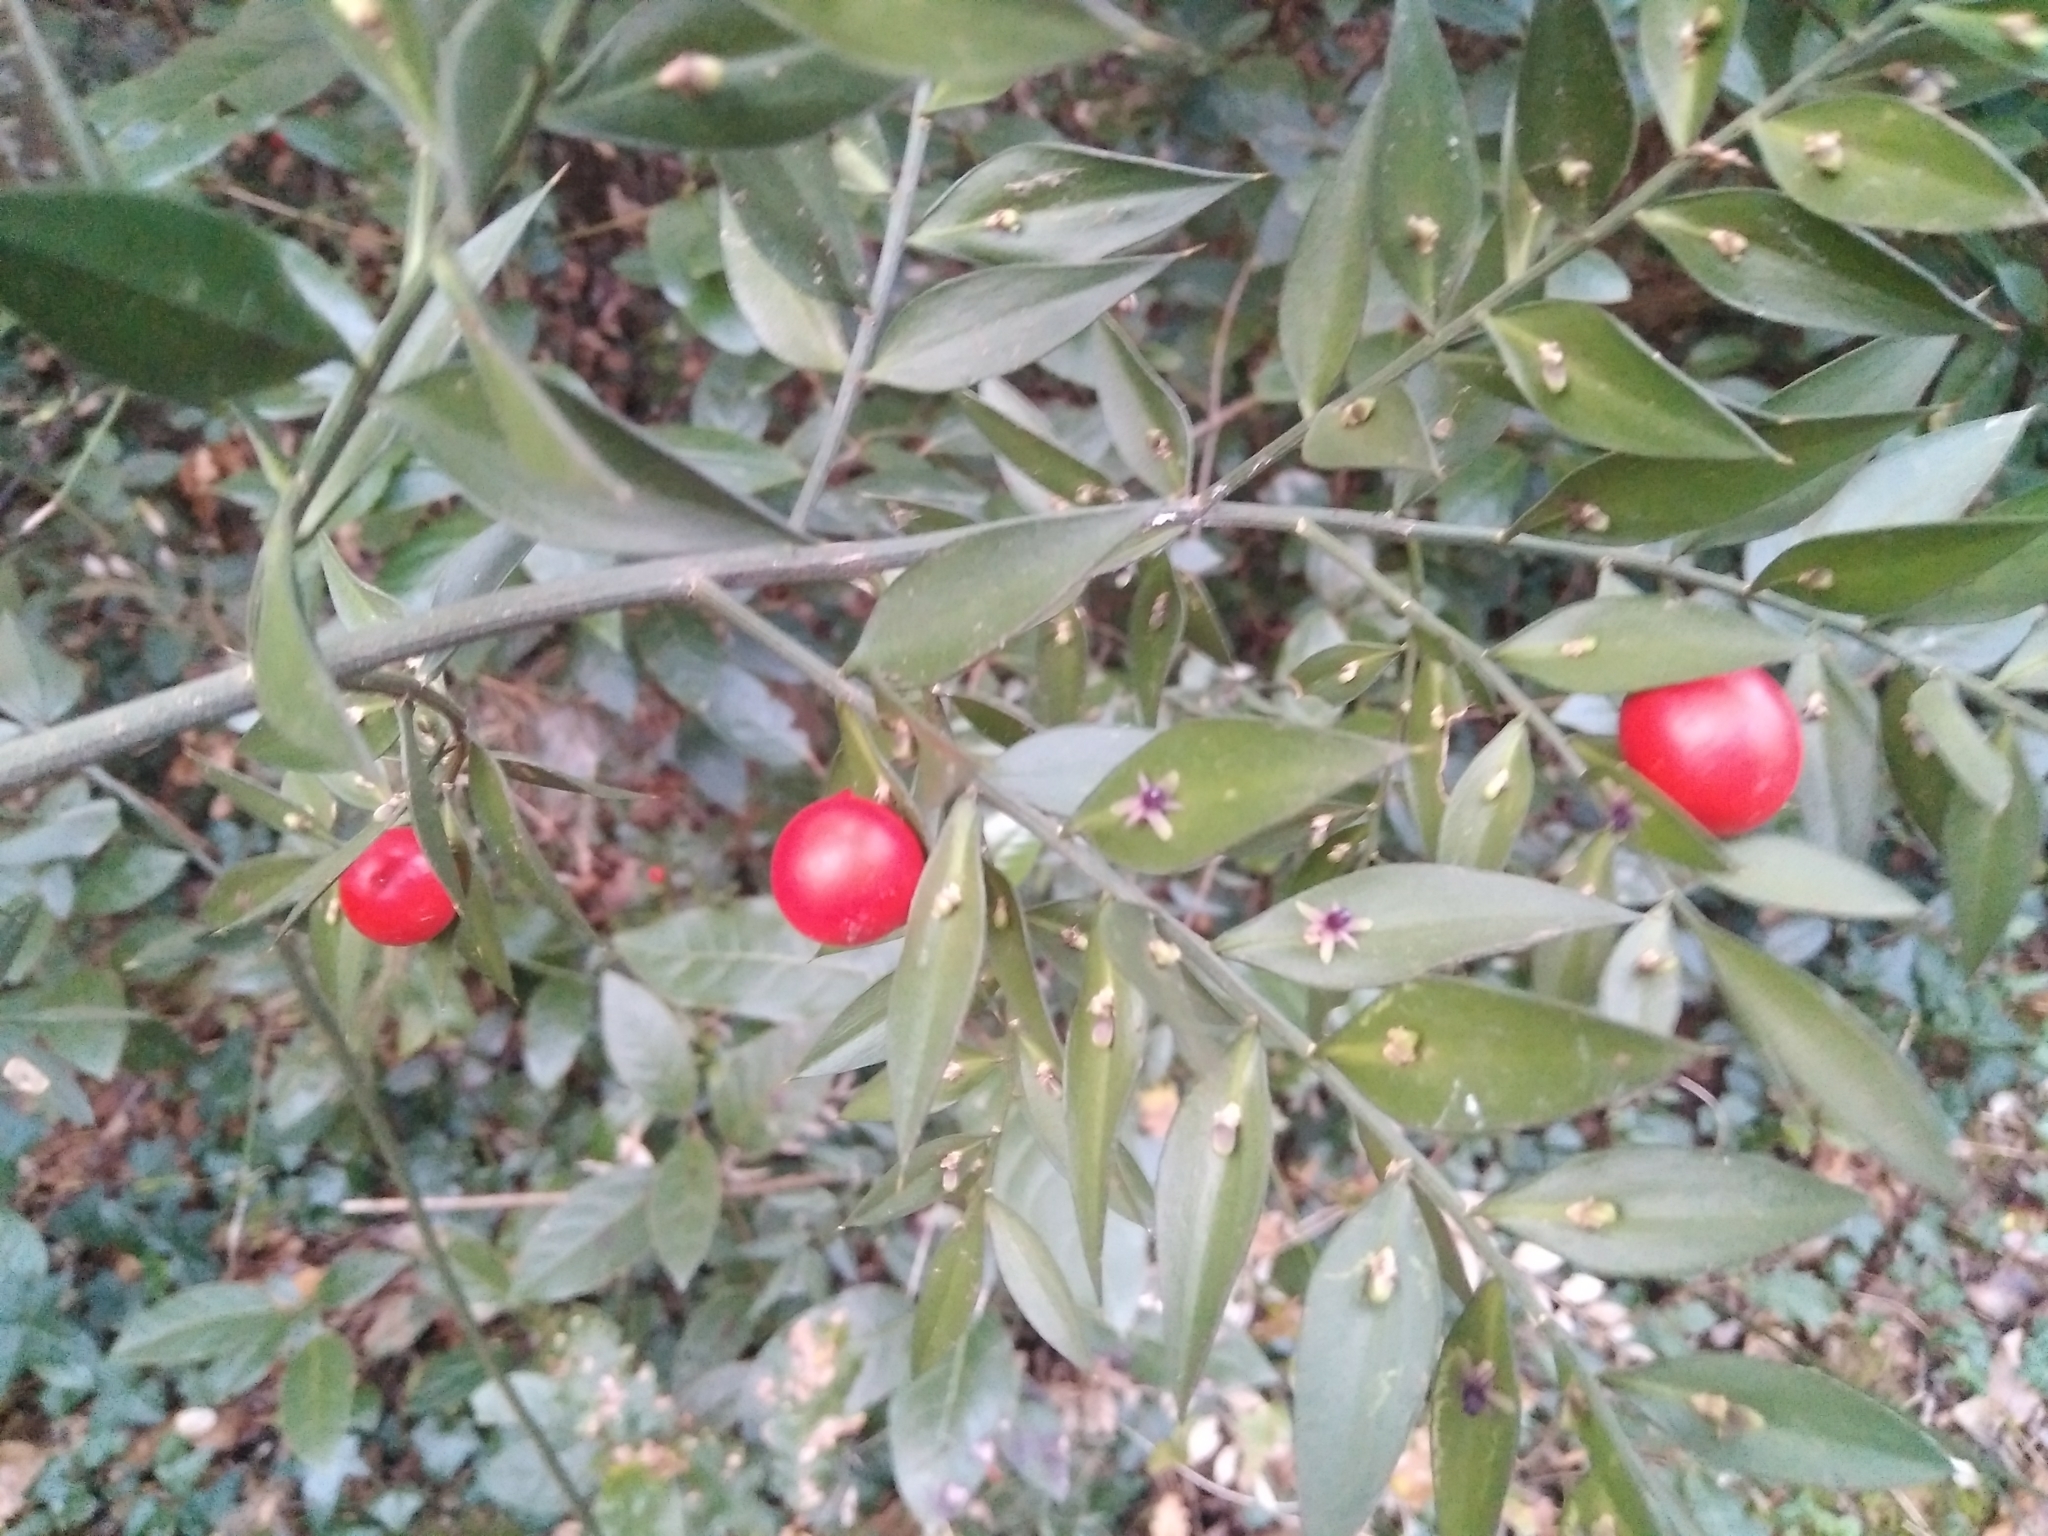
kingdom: Plantae
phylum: Tracheophyta
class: Liliopsida
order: Asparagales
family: Asparagaceae
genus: Ruscus
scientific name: Ruscus aculeatus
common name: Butcher's-broom
